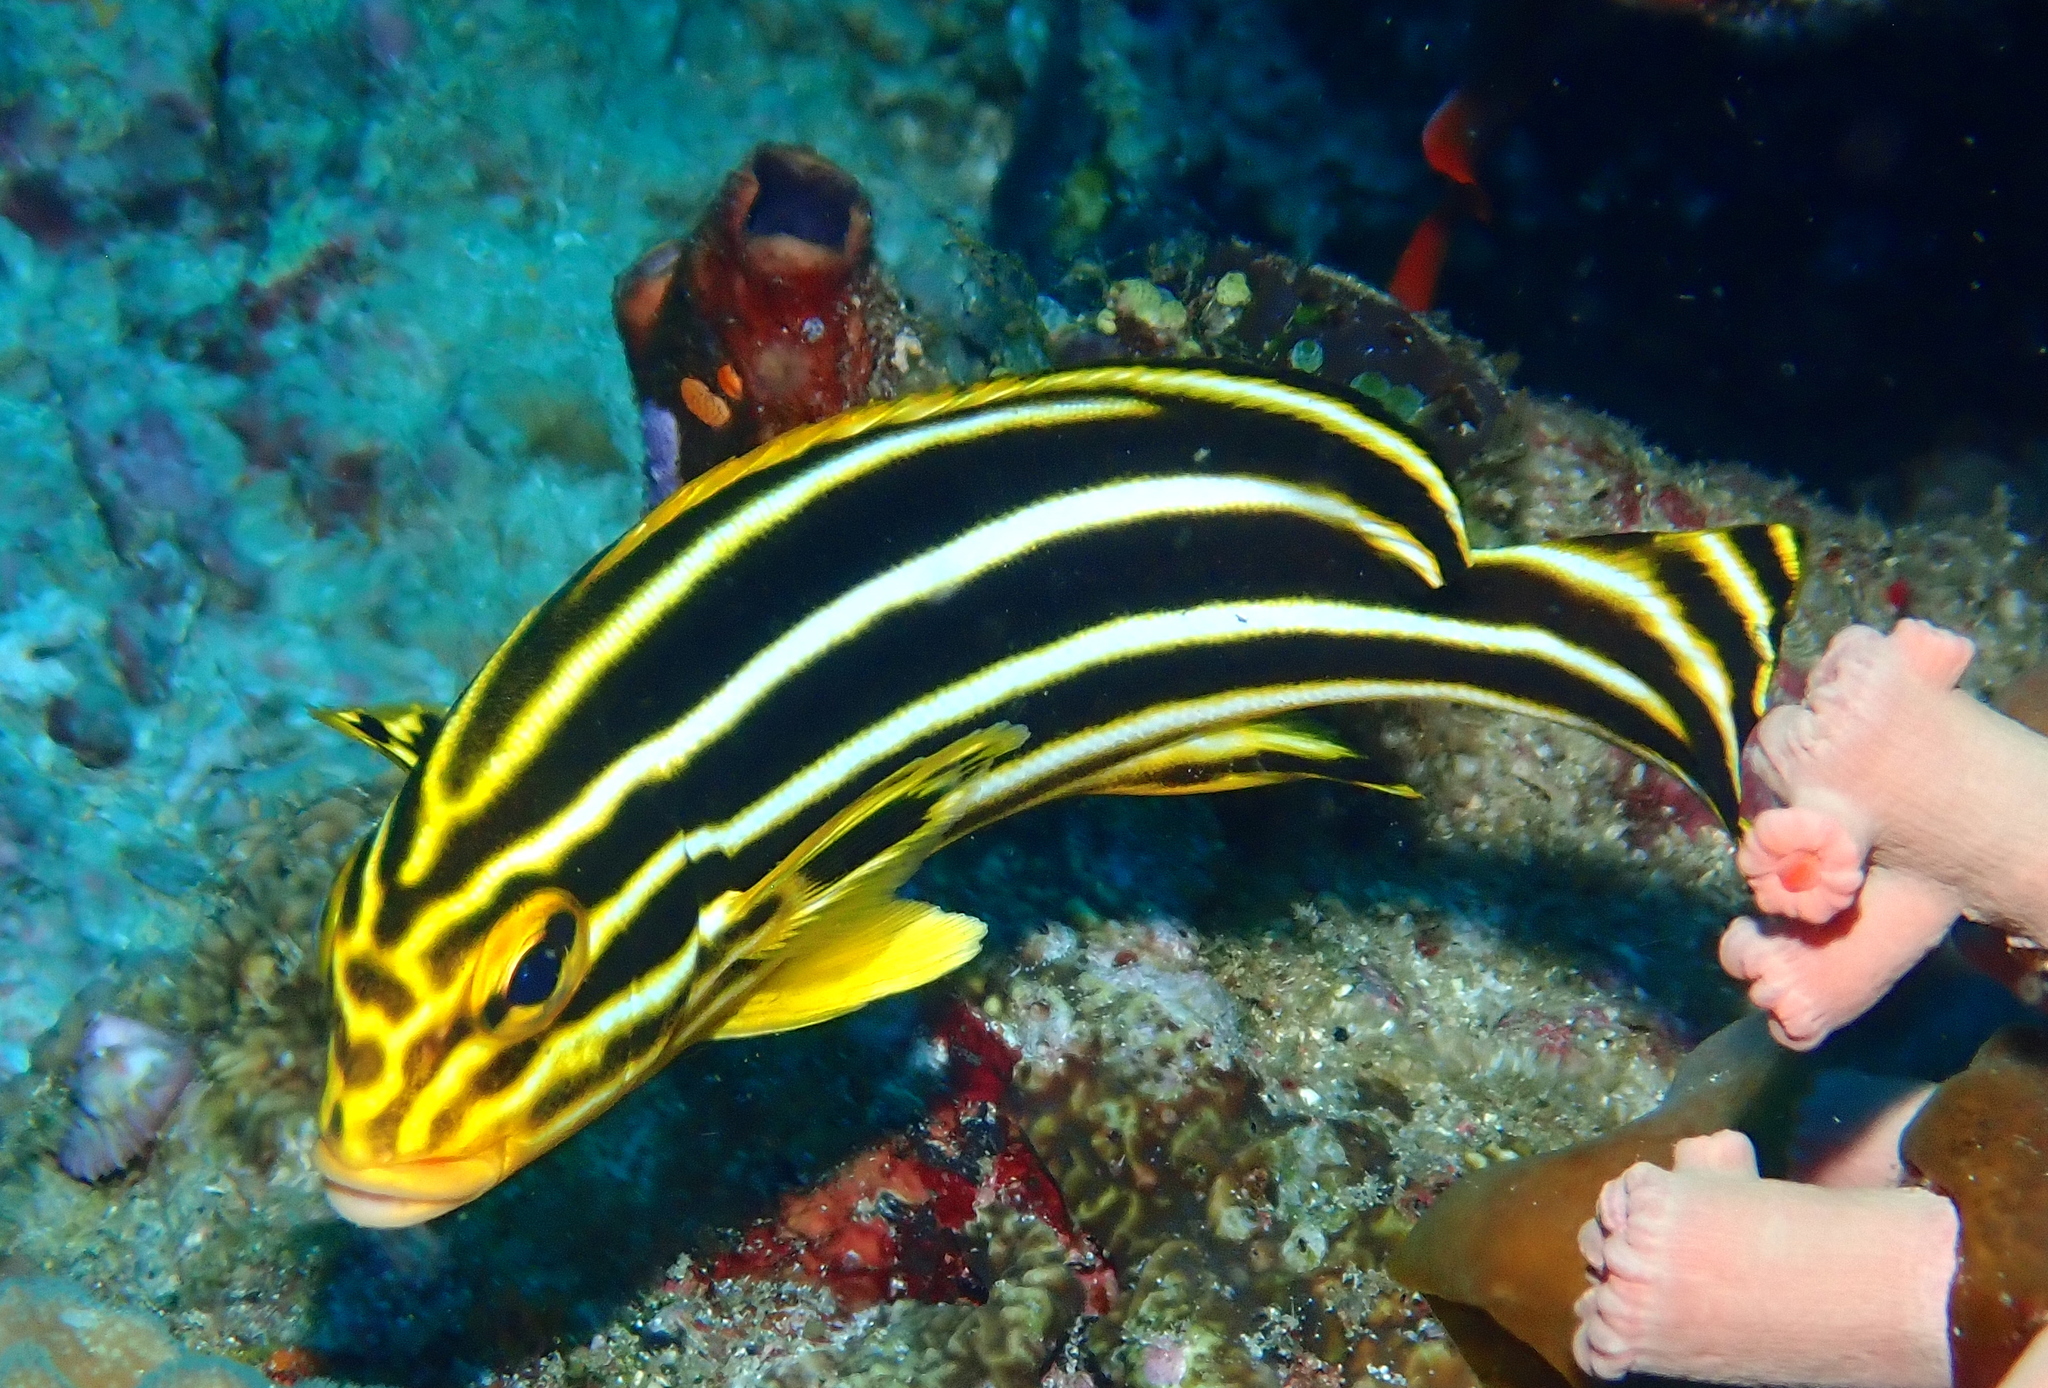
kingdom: Animalia
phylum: Chordata
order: Perciformes
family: Haemulidae
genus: Plectorhinchus
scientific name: Plectorhinchus polytaenia
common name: Ribboned sweetlips
